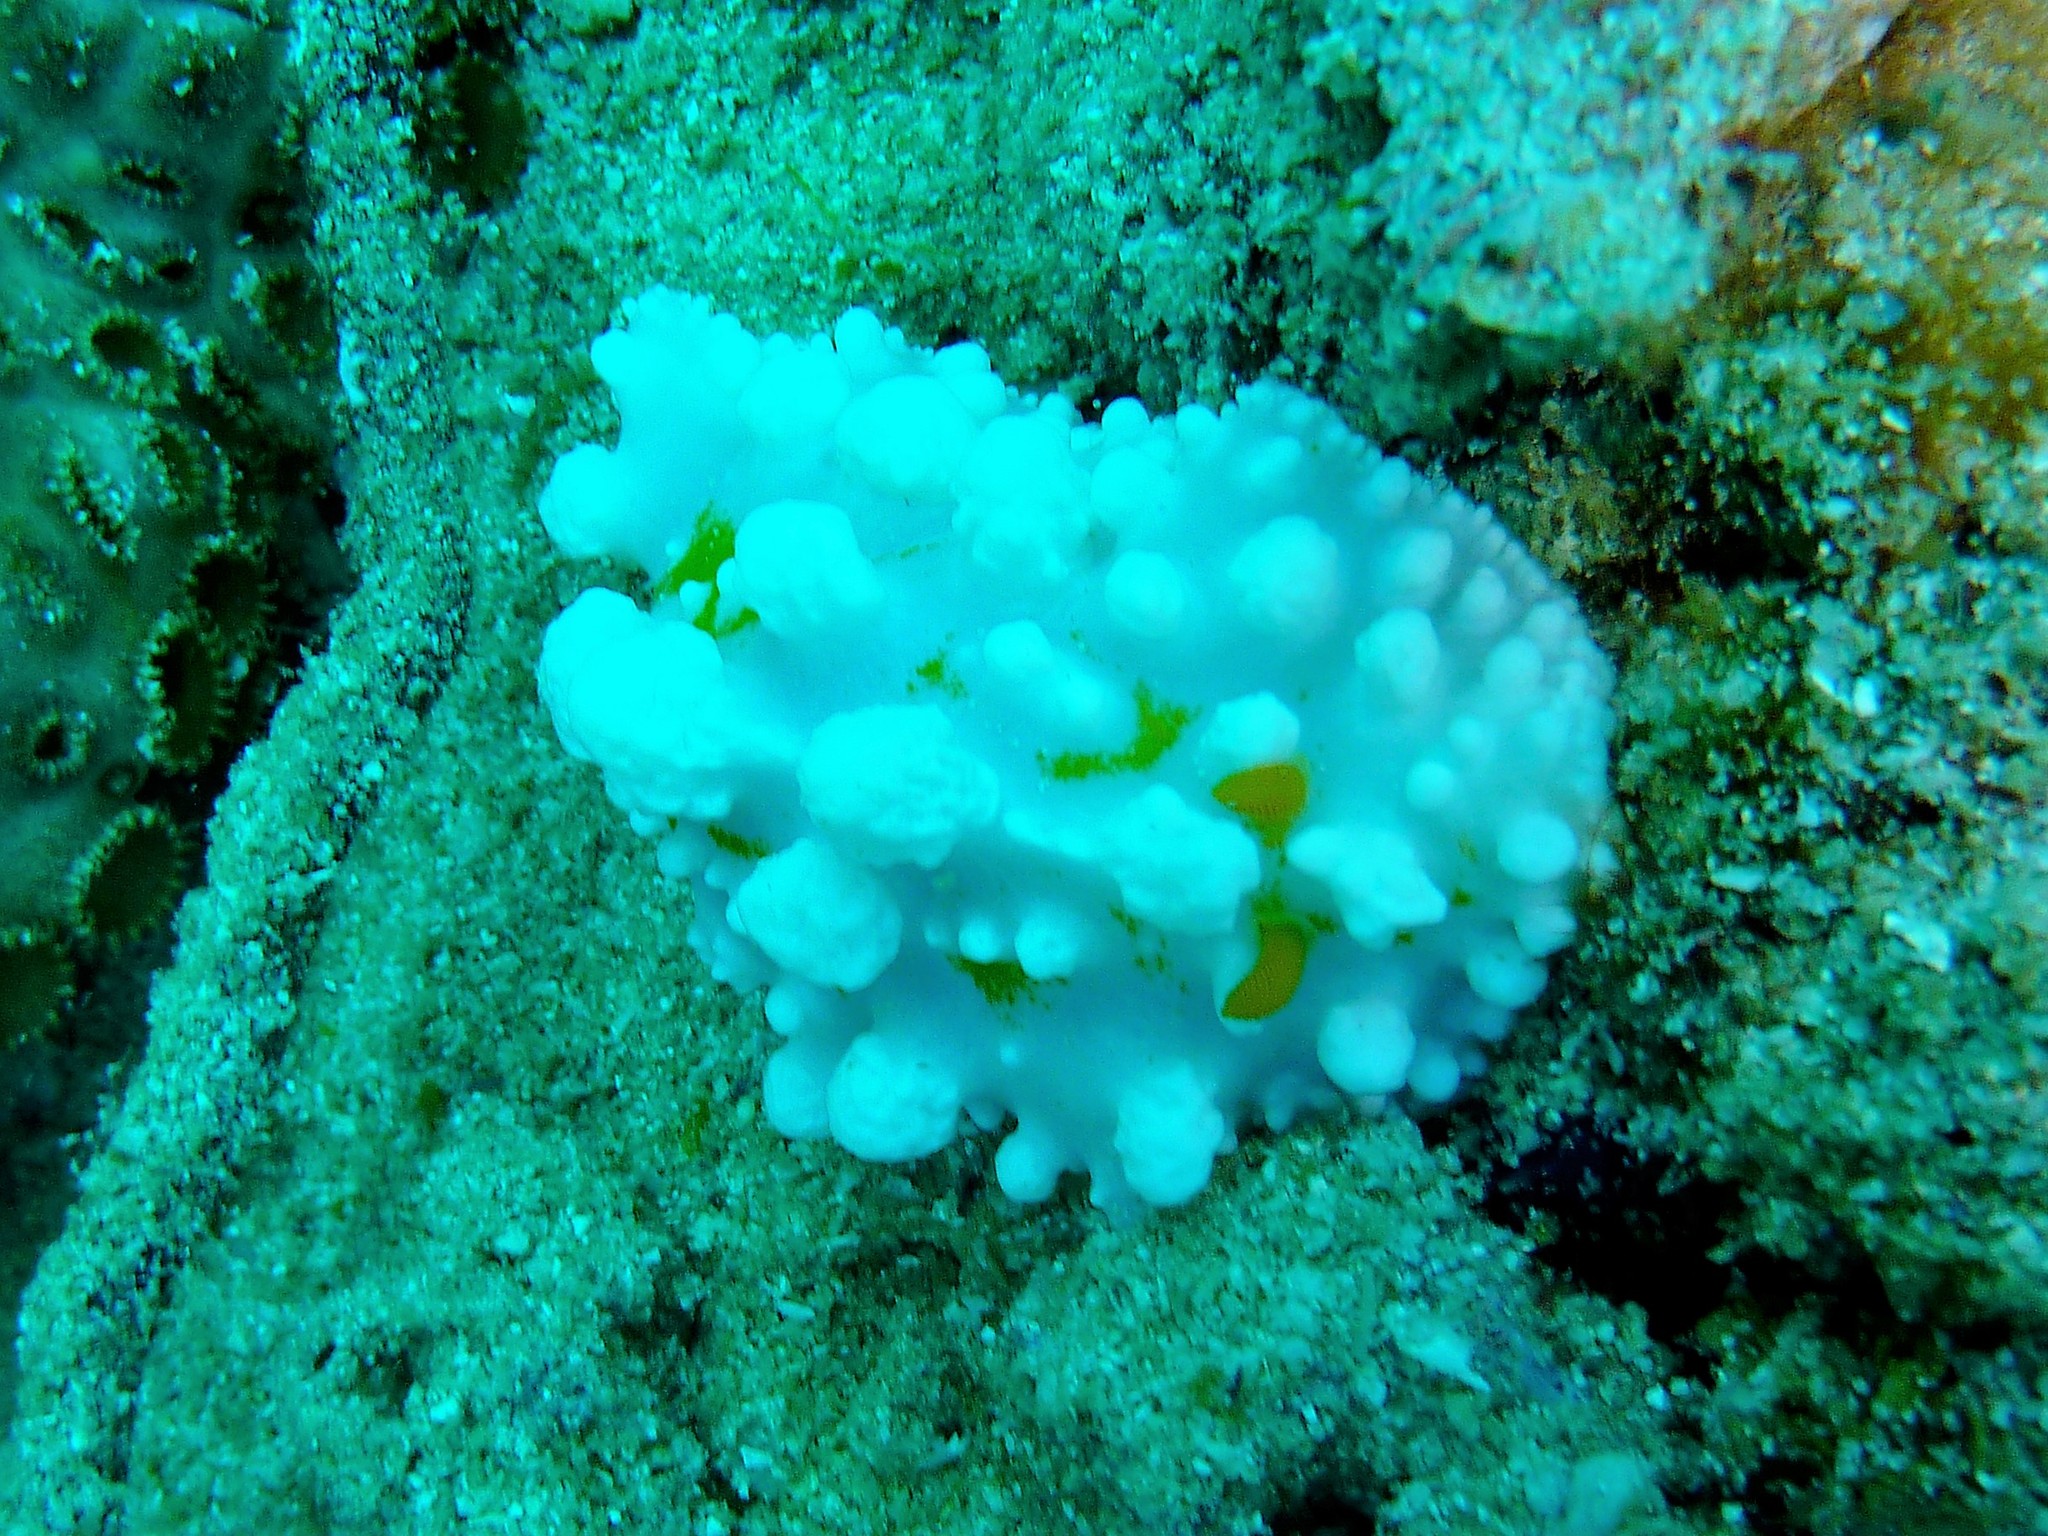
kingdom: Animalia
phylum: Mollusca
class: Gastropoda
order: Nudibranchia
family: Phyllidiidae
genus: Phyllidia
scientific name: Phyllidia ocellata
